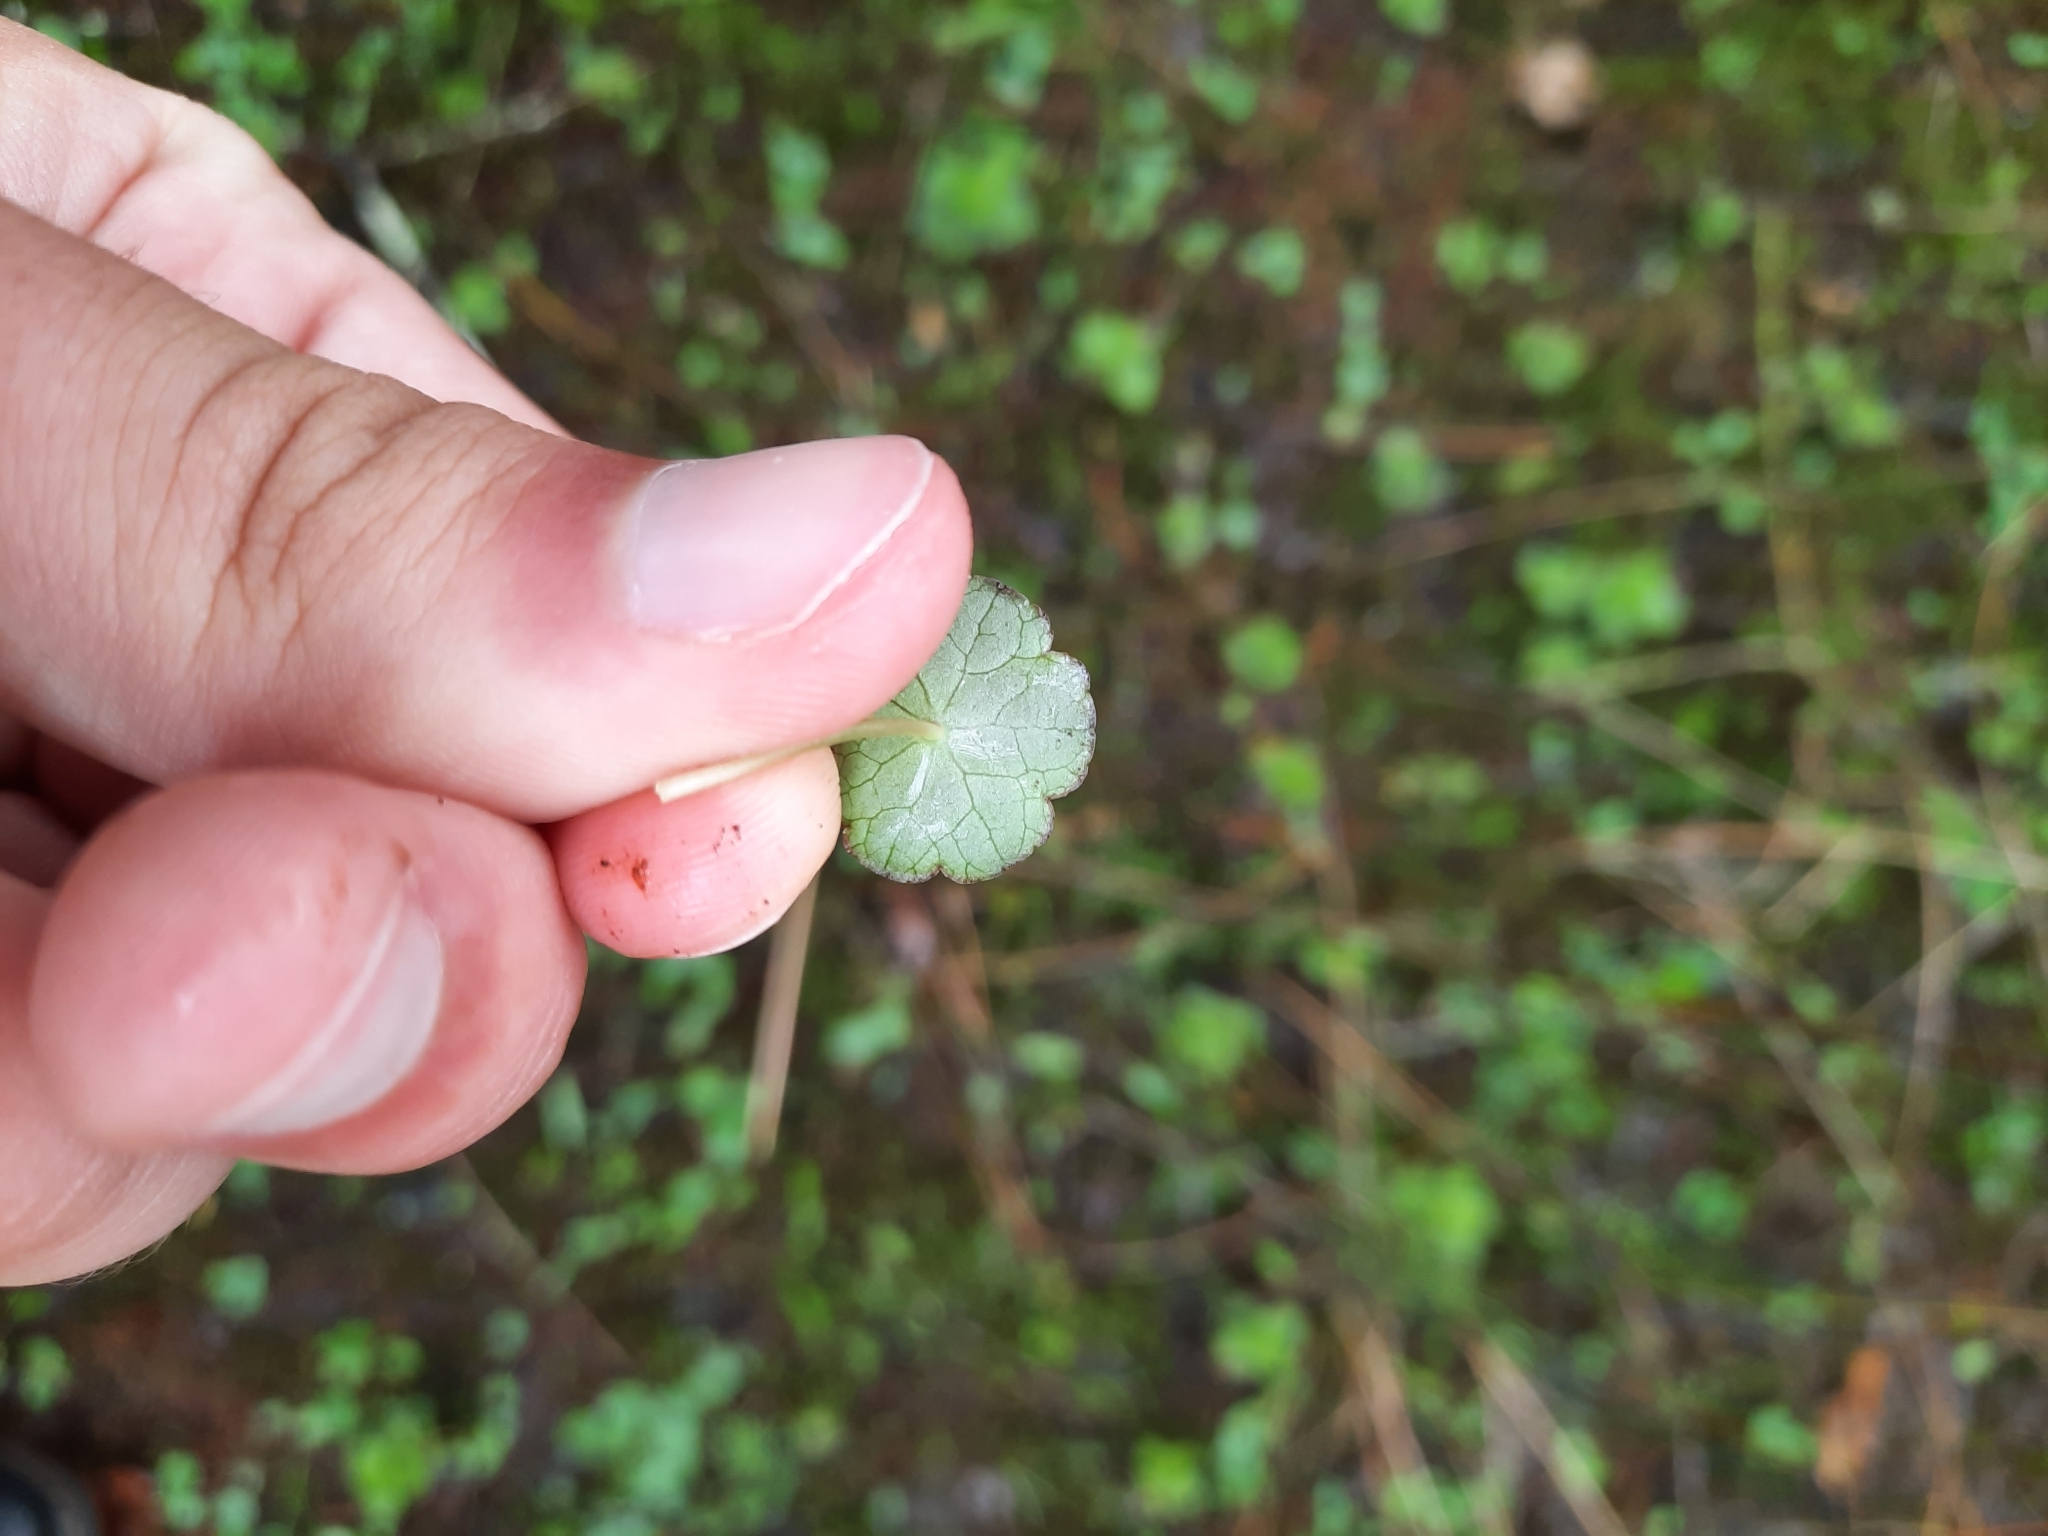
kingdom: Plantae
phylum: Tracheophyta
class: Magnoliopsida
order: Apiales
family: Araliaceae
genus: Hydrocotyle
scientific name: Hydrocotyle vulgaris
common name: Marsh pennywort
